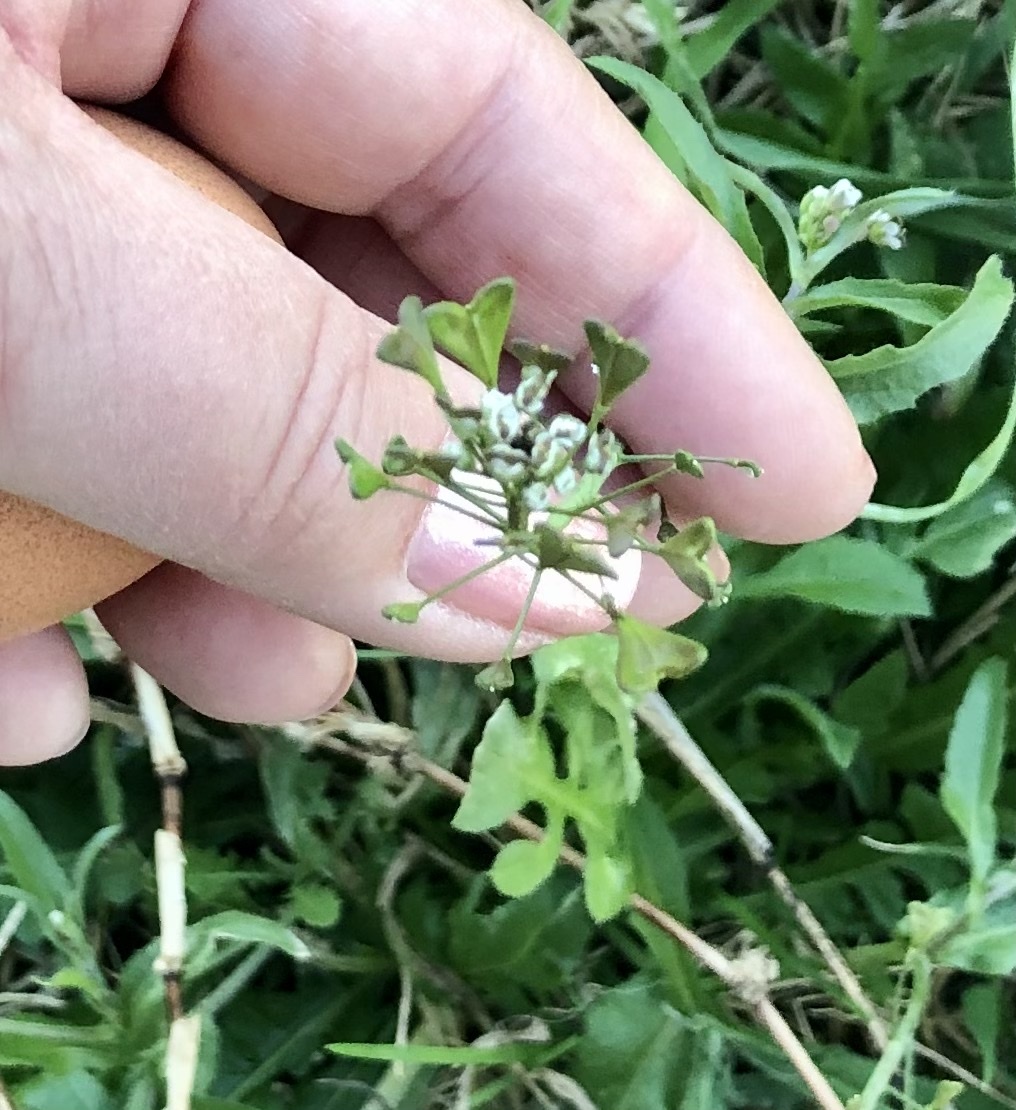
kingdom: Plantae
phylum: Tracheophyta
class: Magnoliopsida
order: Brassicales
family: Brassicaceae
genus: Capsella
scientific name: Capsella bursa-pastoris
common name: Shepherd's purse
